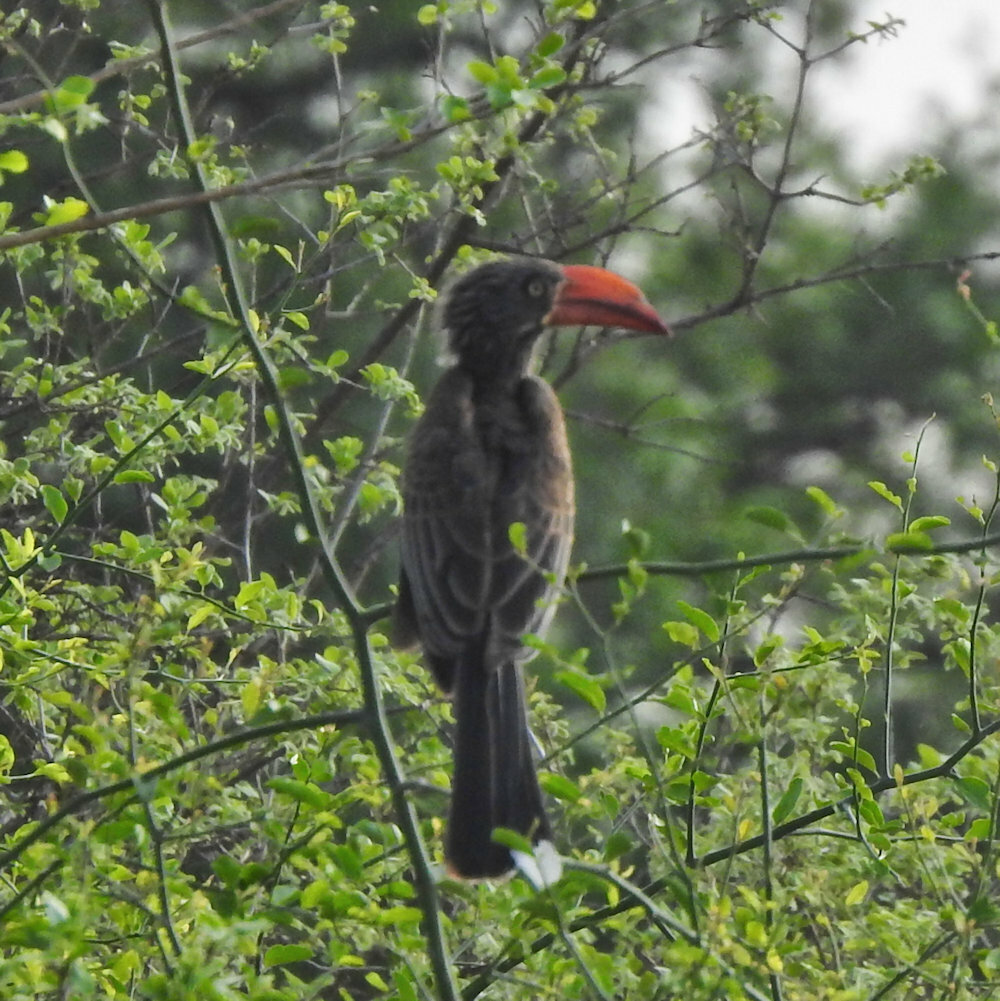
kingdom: Animalia
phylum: Chordata
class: Aves
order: Bucerotiformes
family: Bucerotidae
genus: Lophoceros
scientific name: Lophoceros alboterminatus
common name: Crowned hornbill
